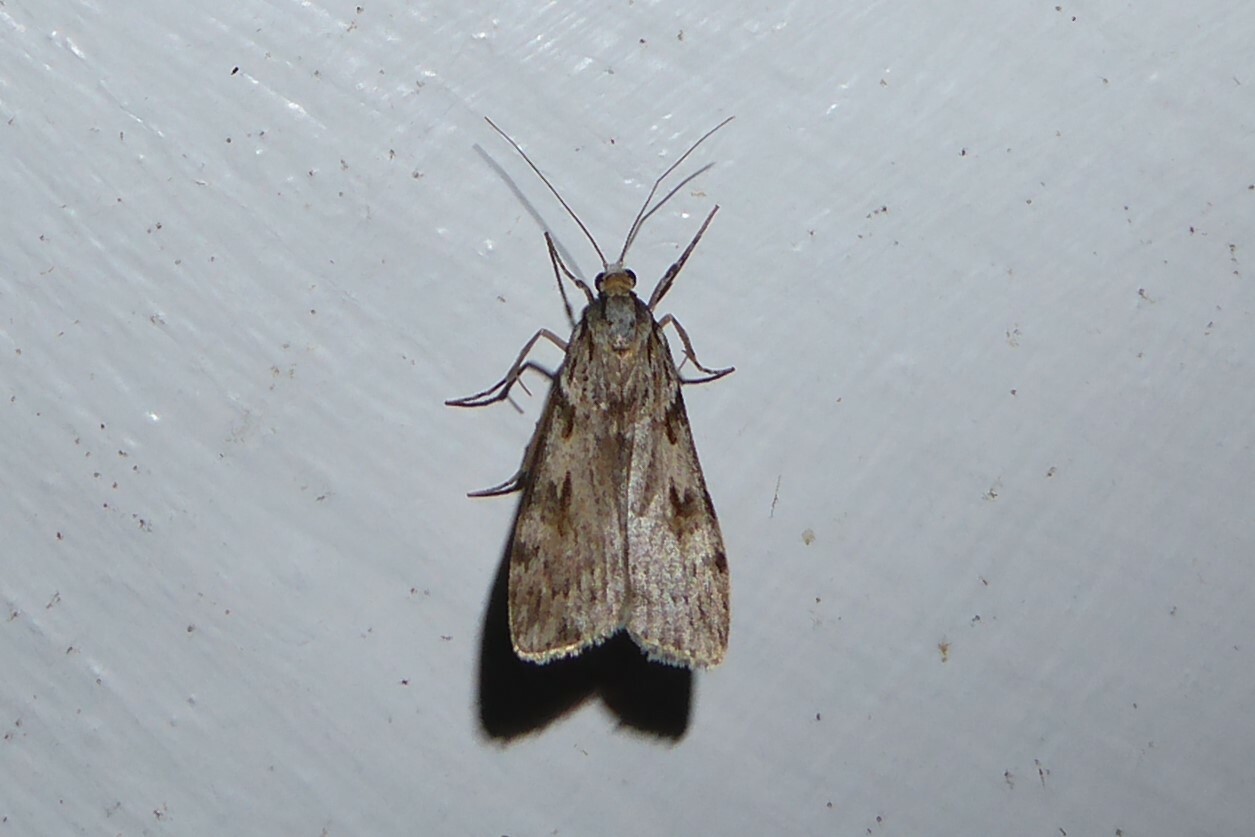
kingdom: Animalia
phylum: Arthropoda
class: Insecta
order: Lepidoptera
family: Crambidae
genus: Scoparia
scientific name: Scoparia halopis
